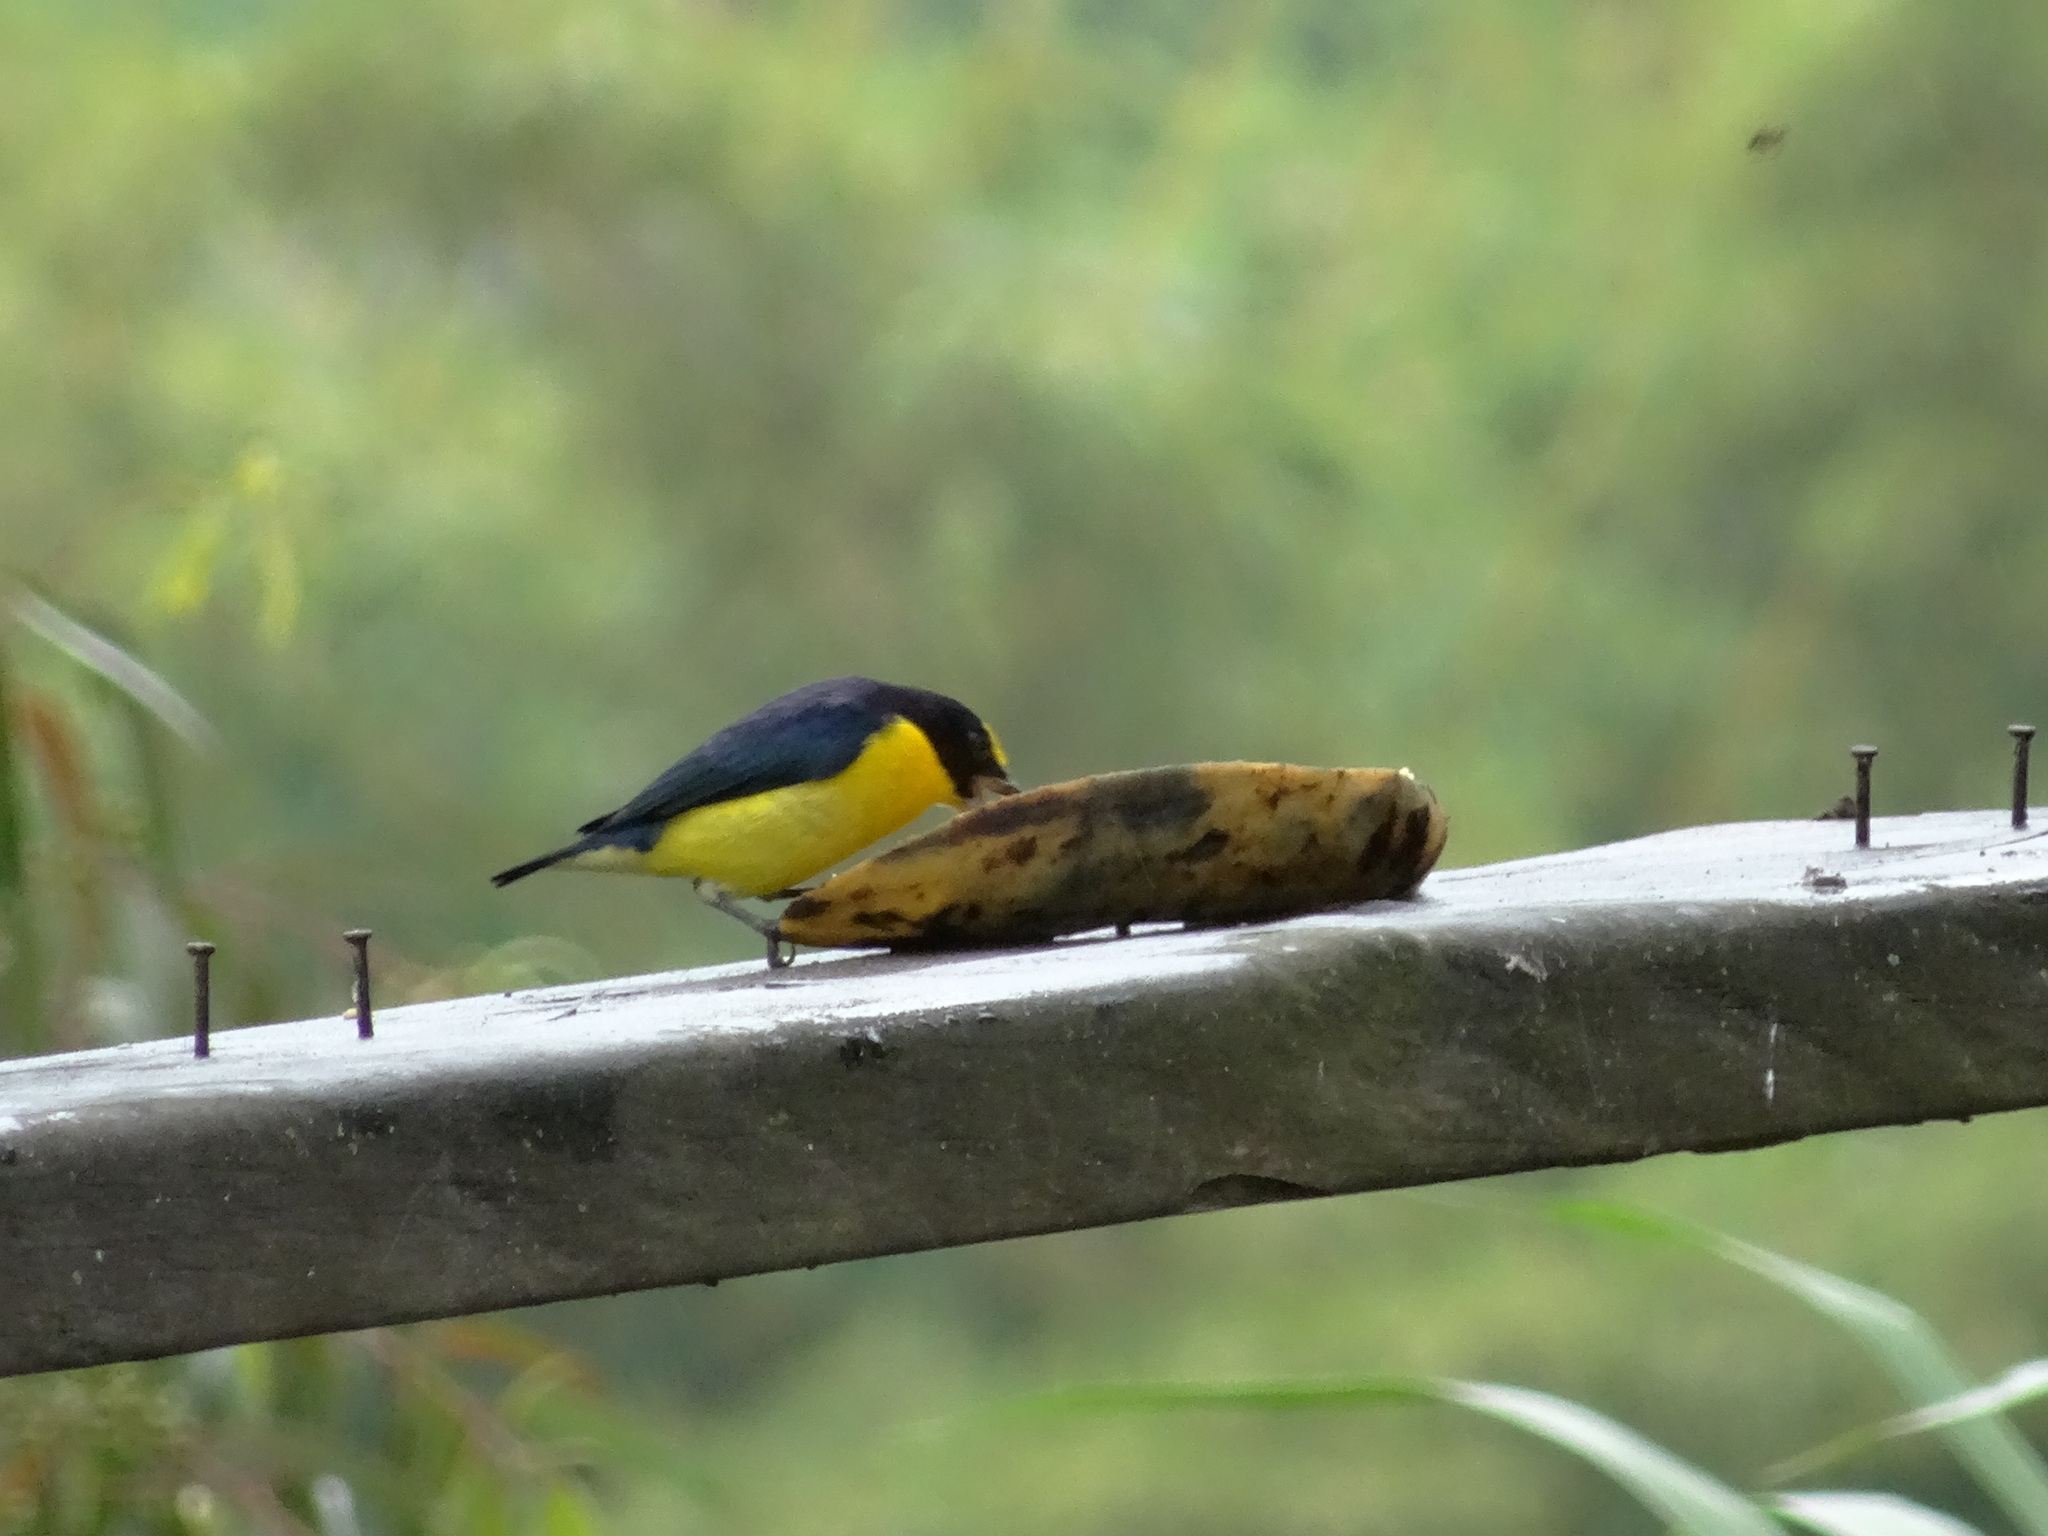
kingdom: Animalia
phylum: Chordata
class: Aves
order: Passeriformes
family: Fringillidae
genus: Euphonia
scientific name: Euphonia laniirostris
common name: Thick-billed euphonia
